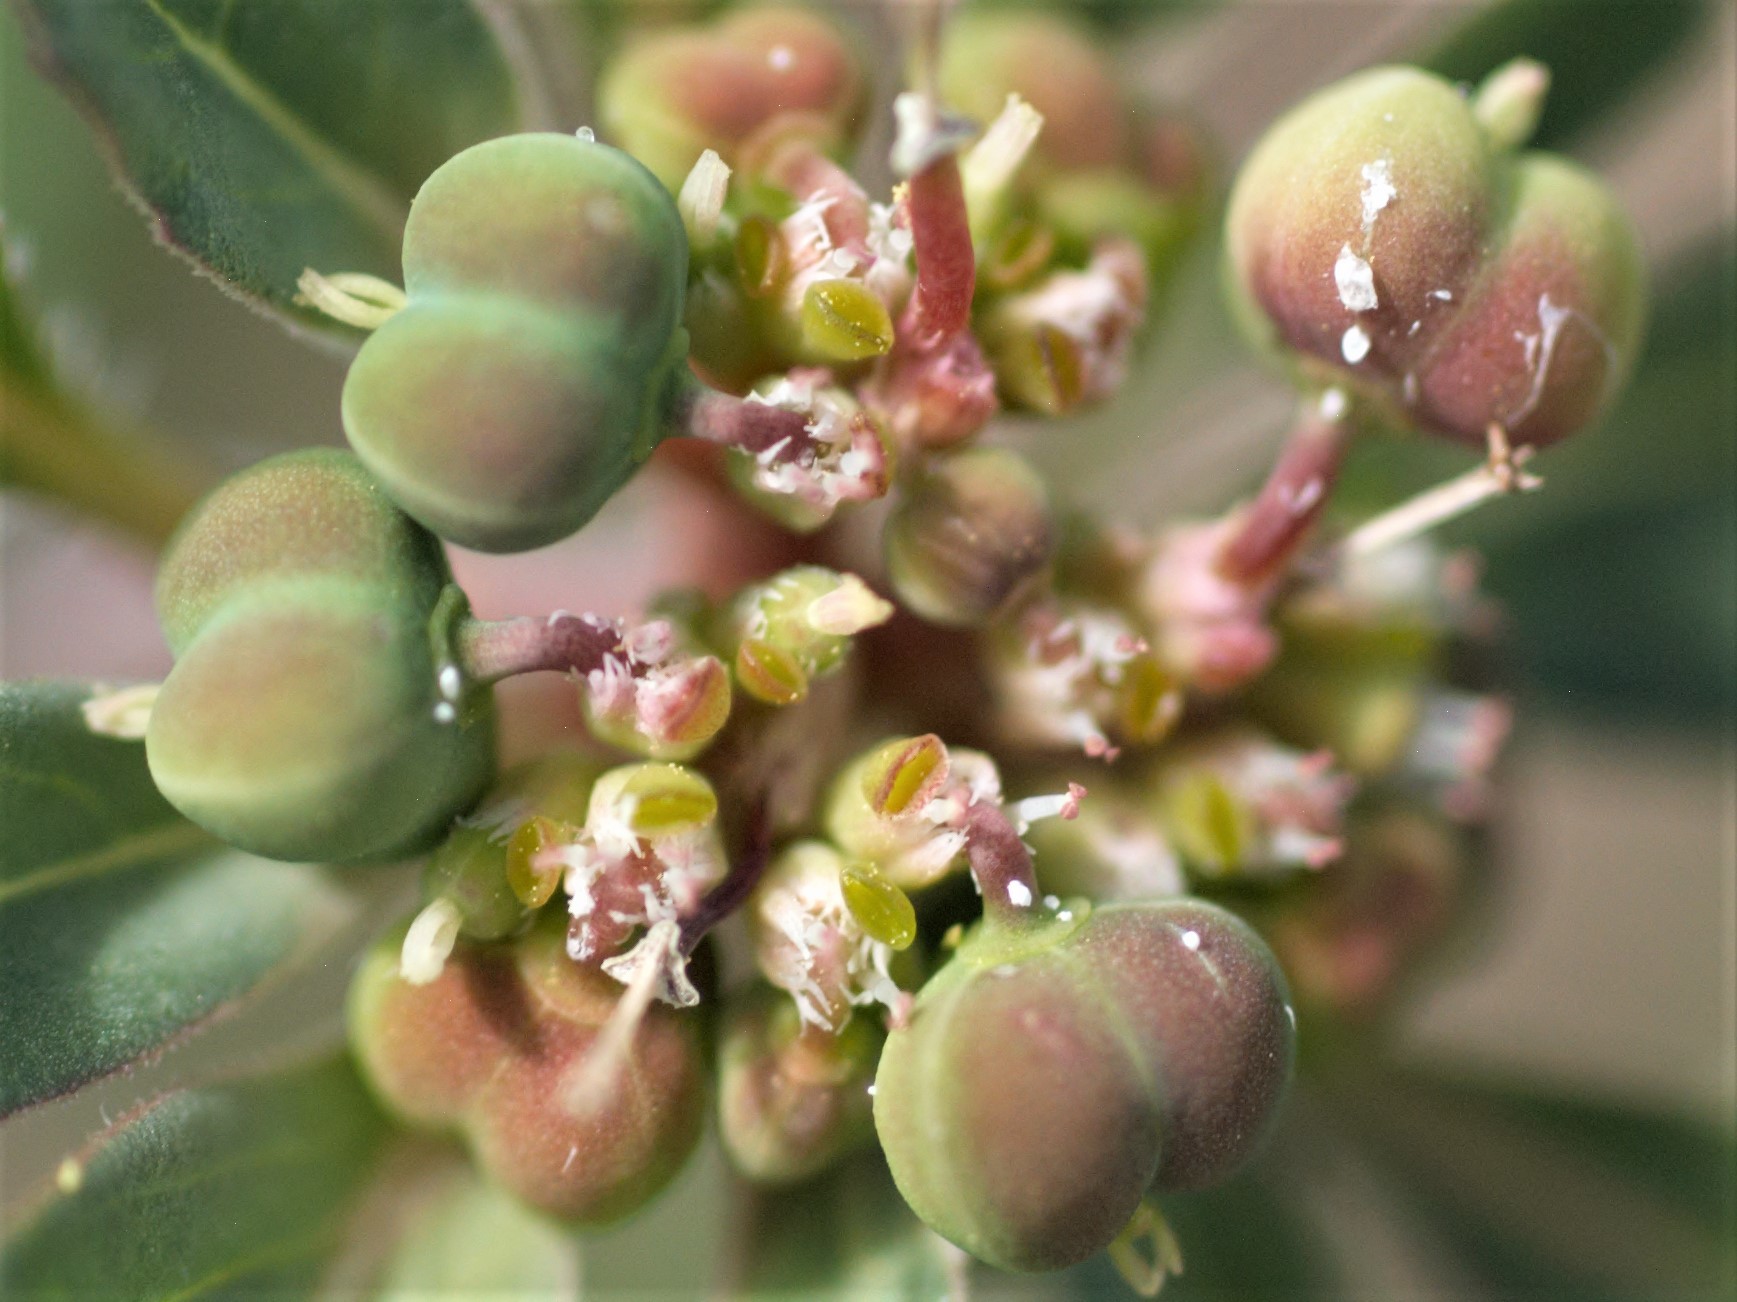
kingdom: Plantae
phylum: Tracheophyta
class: Magnoliopsida
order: Malpighiales
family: Euphorbiaceae
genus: Euphorbia
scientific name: Euphorbia davidii
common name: David's spurge
